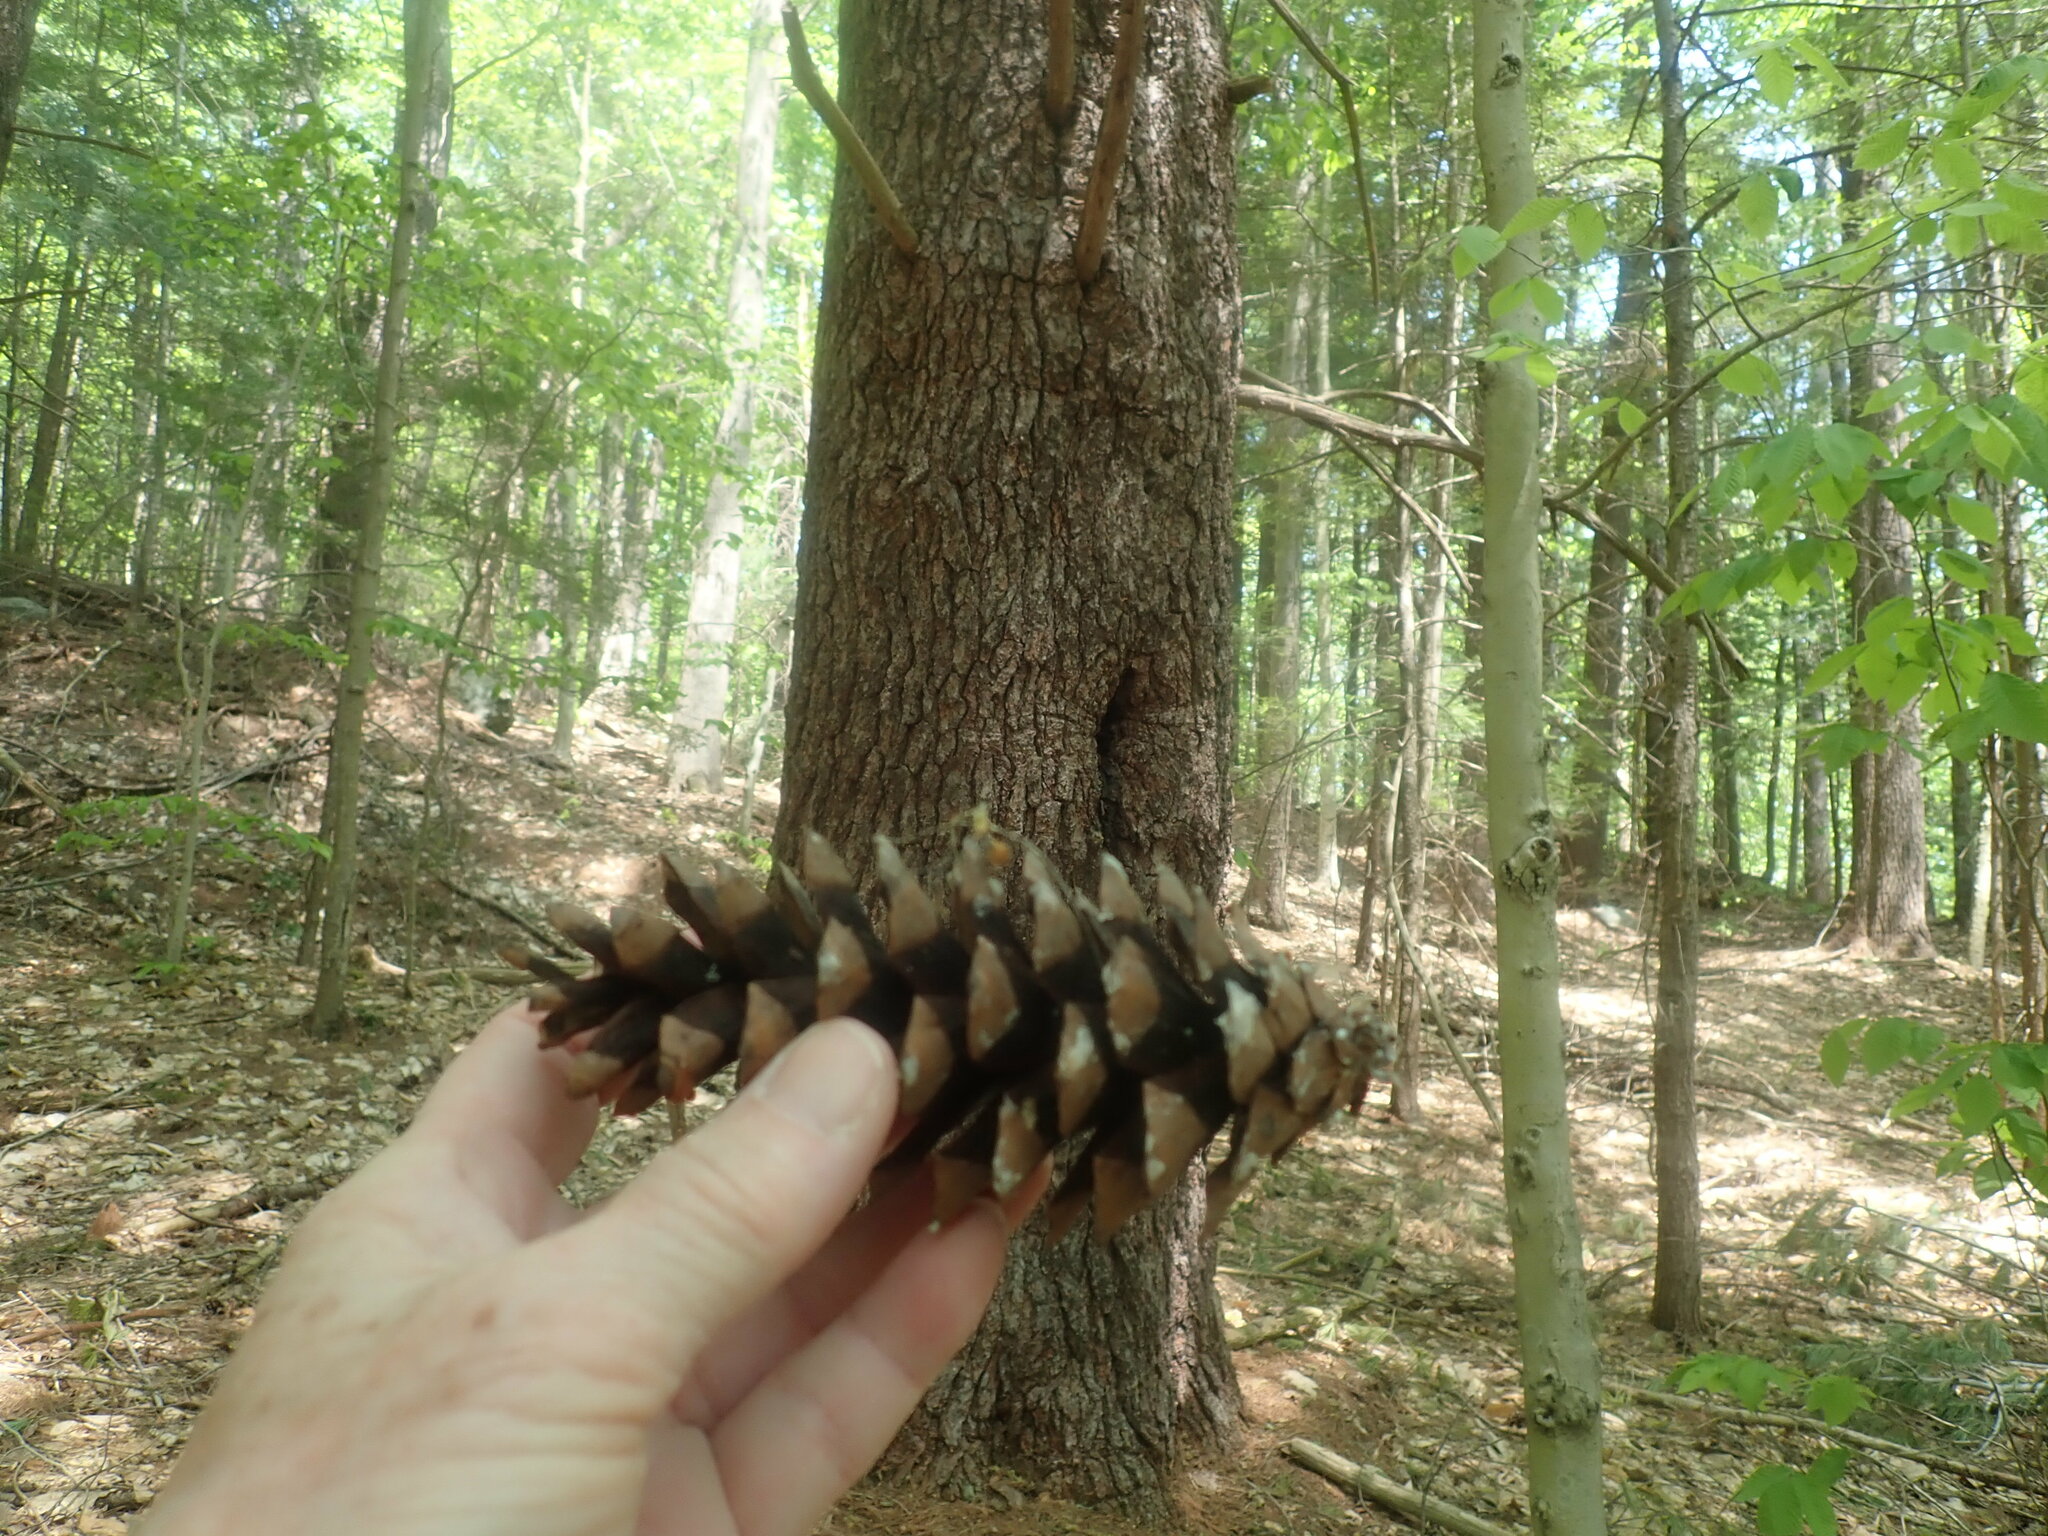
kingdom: Plantae
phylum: Tracheophyta
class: Pinopsida
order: Pinales
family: Pinaceae
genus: Pinus
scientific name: Pinus strobus
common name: Weymouth pine
